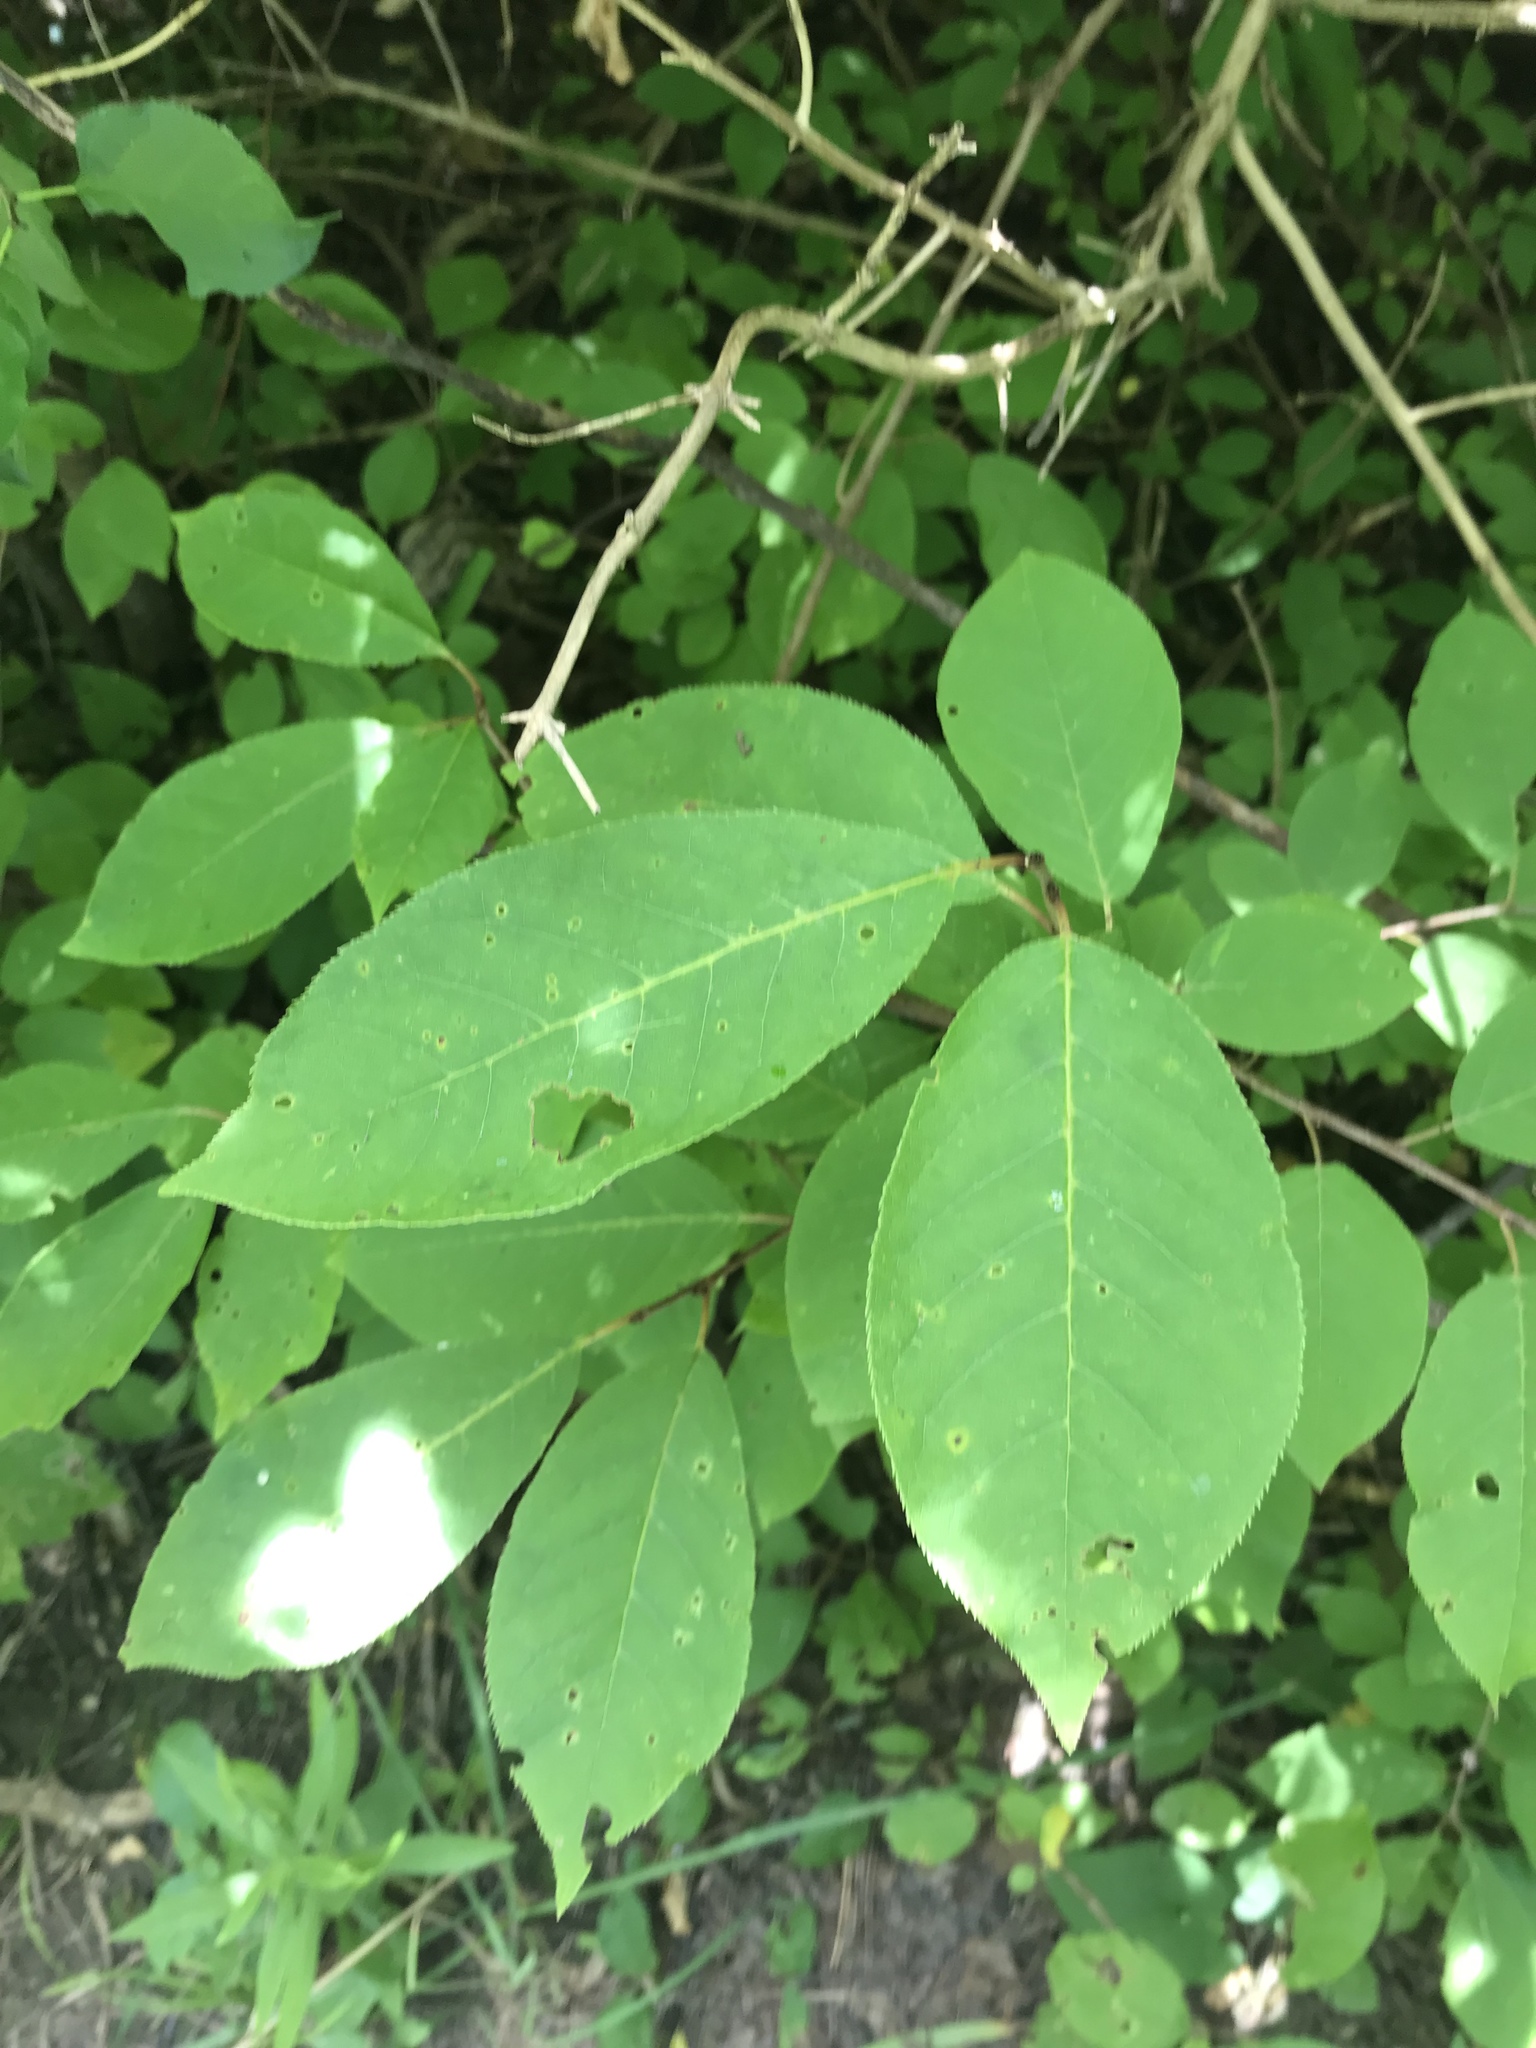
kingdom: Plantae
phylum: Tracheophyta
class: Magnoliopsida
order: Rosales
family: Rosaceae
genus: Prunus
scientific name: Prunus virginiana
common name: Chokecherry
